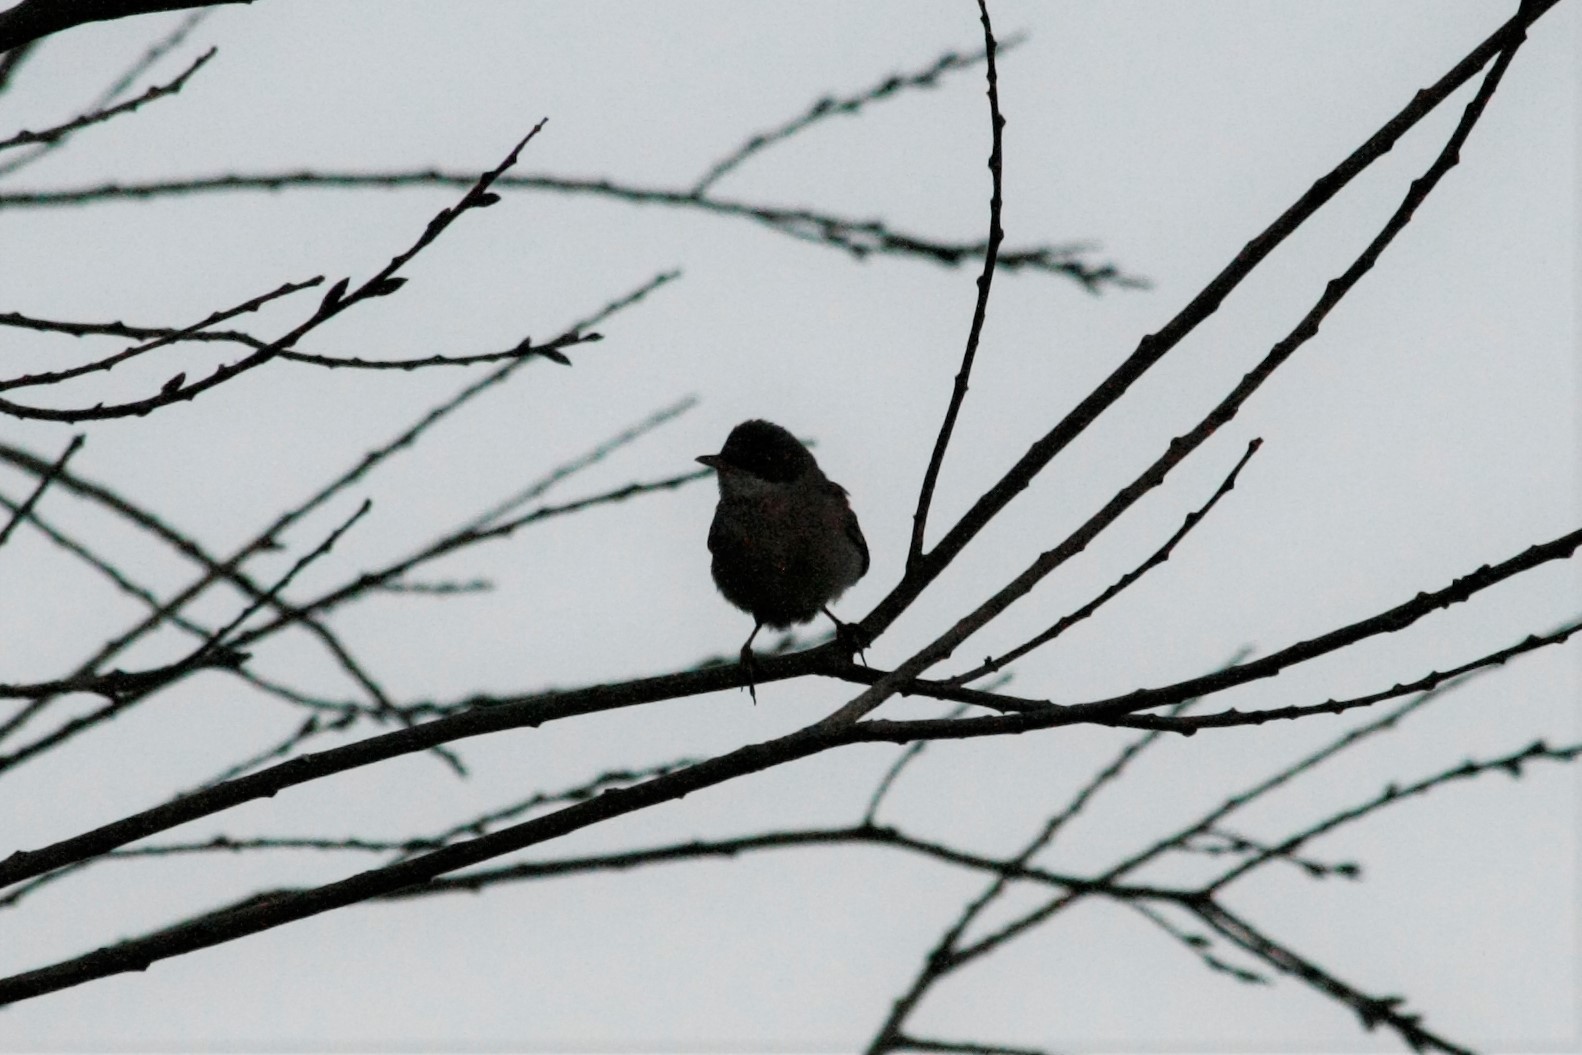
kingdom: Animalia
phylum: Chordata
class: Aves
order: Passeriformes
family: Sylviidae
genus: Sylvia
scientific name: Sylvia communis
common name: Common whitethroat
